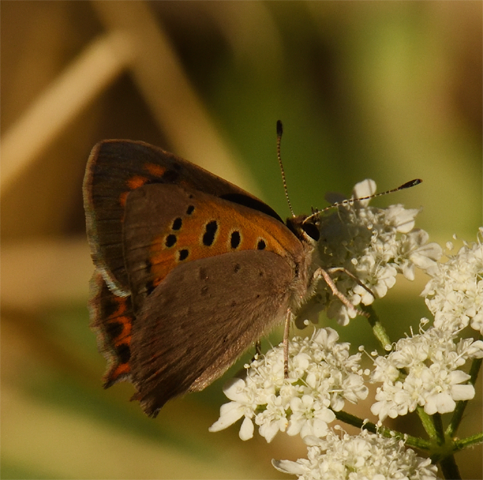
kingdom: Animalia
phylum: Arthropoda
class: Insecta
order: Lepidoptera
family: Lycaenidae
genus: Lycaena
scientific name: Lycaena phlaeas
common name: Small copper
